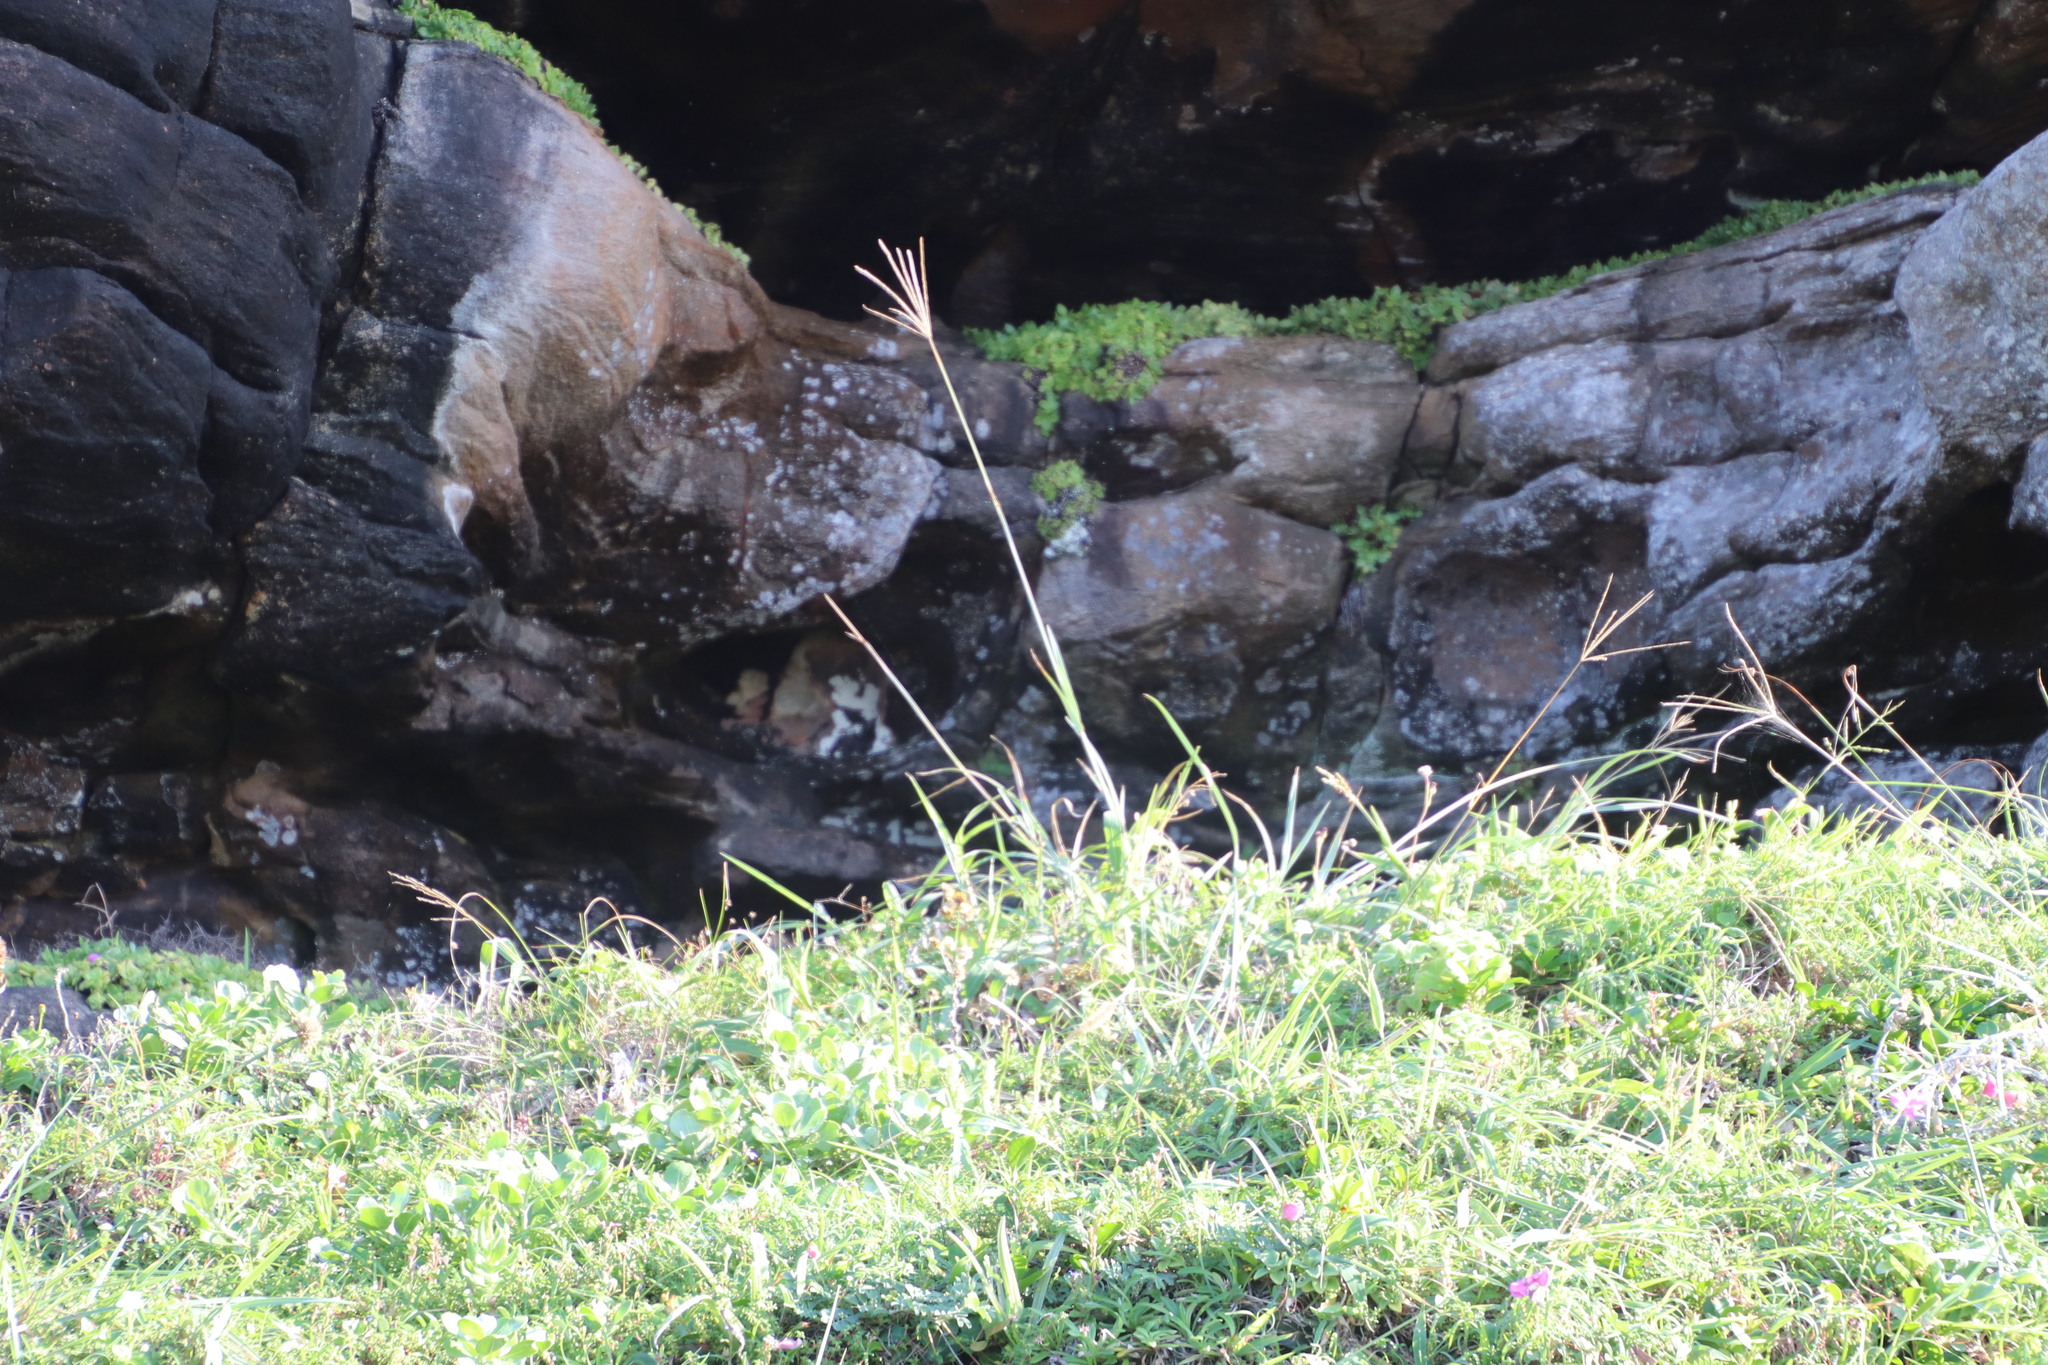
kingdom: Plantae
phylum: Tracheophyta
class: Liliopsida
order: Poales
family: Poaceae
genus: Digitaria
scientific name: Digitaria eriantha
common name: Digitgrass
